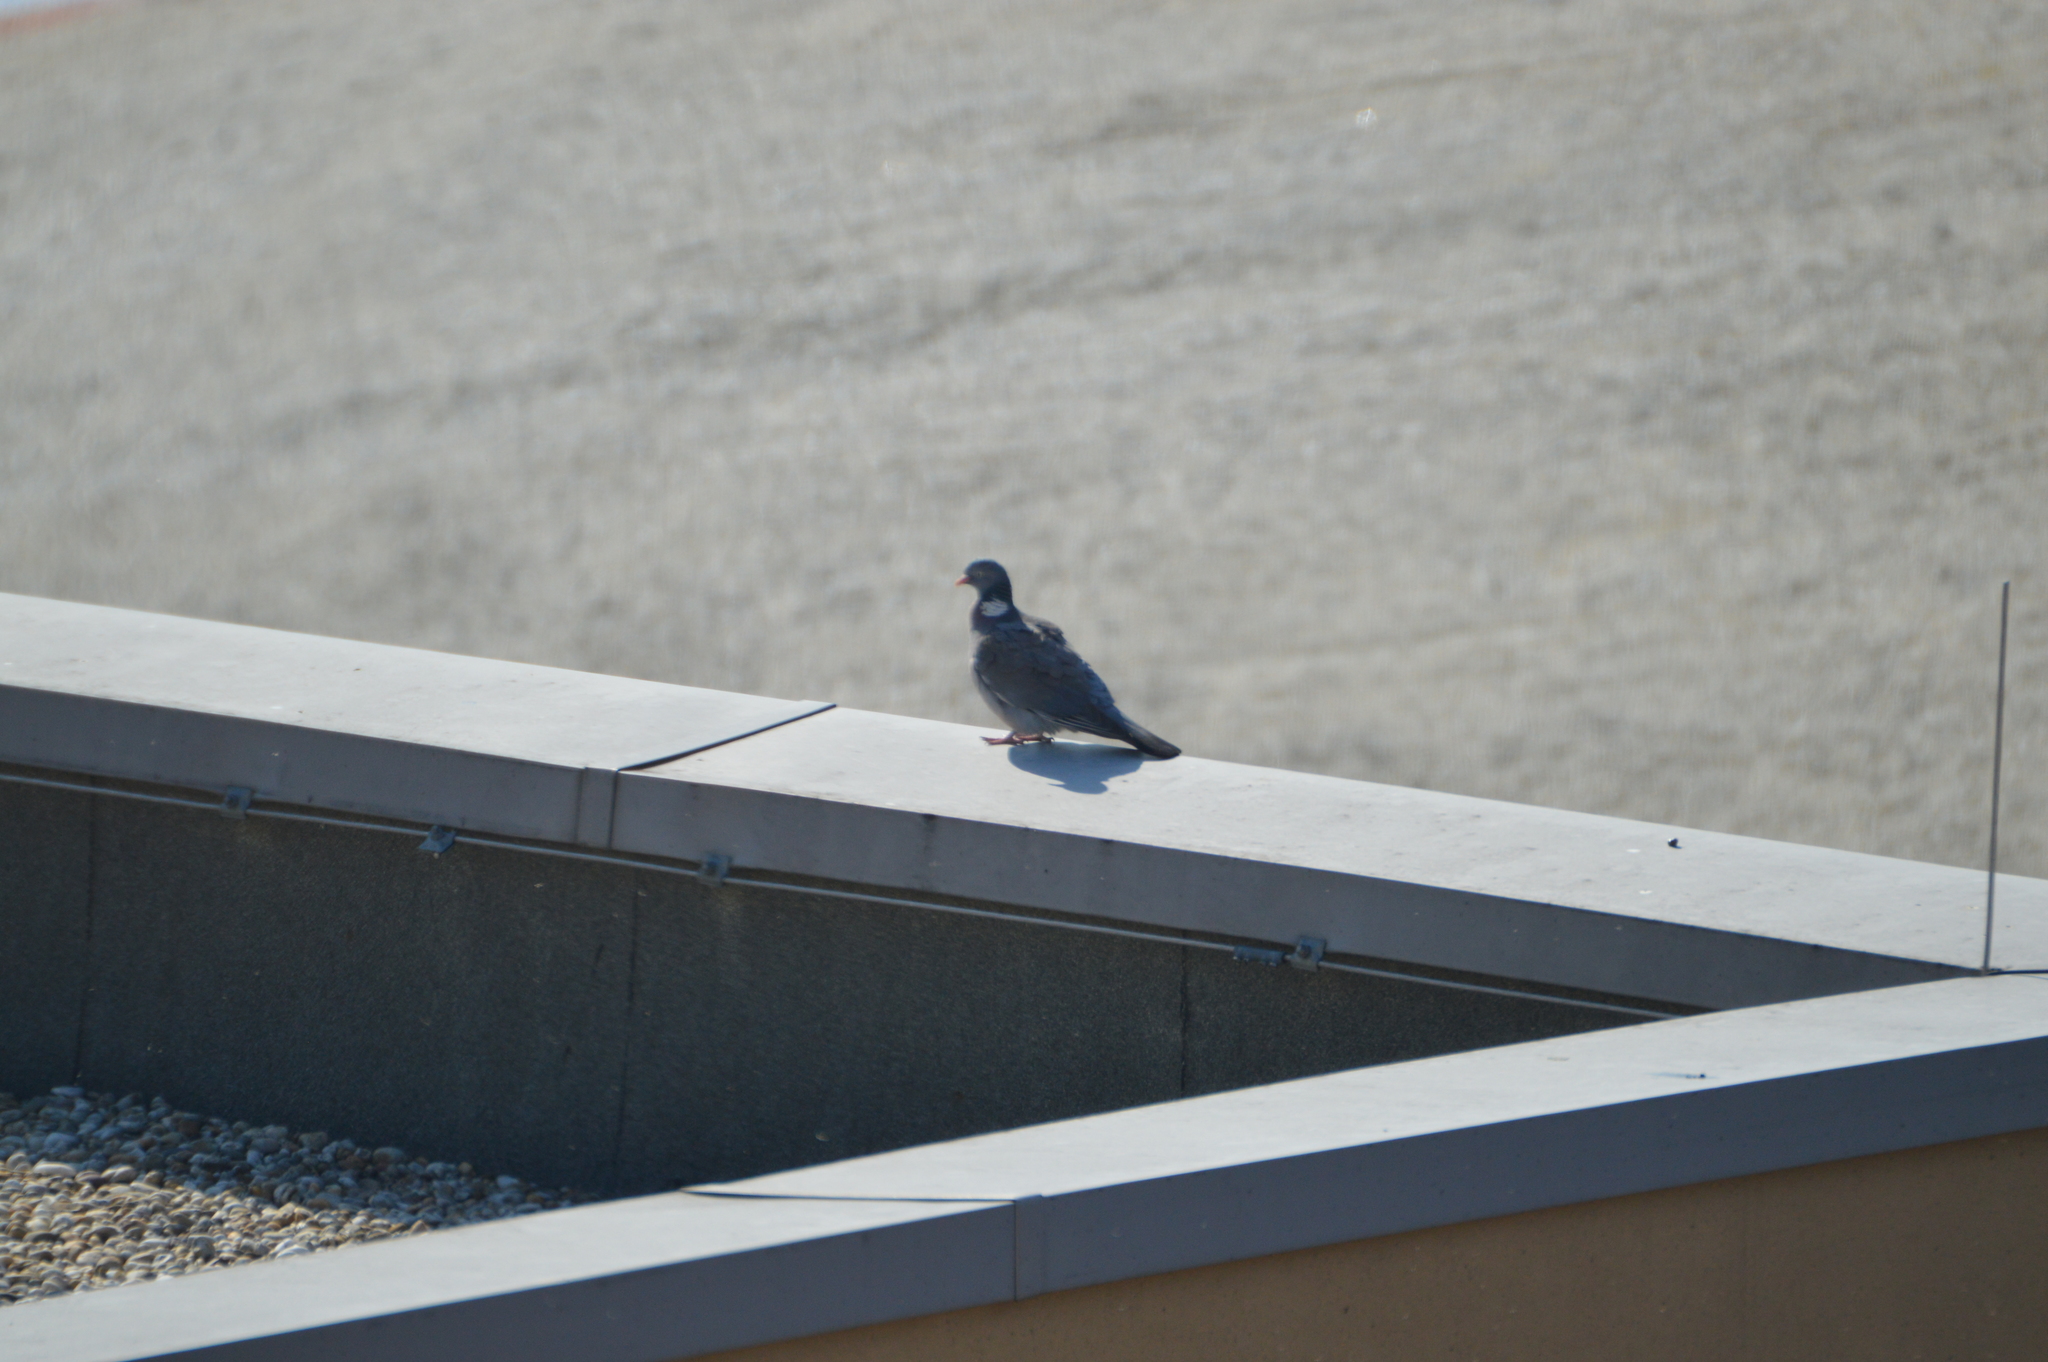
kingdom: Animalia
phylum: Chordata
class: Aves
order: Columbiformes
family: Columbidae
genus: Columba
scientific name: Columba palumbus
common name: Common wood pigeon
